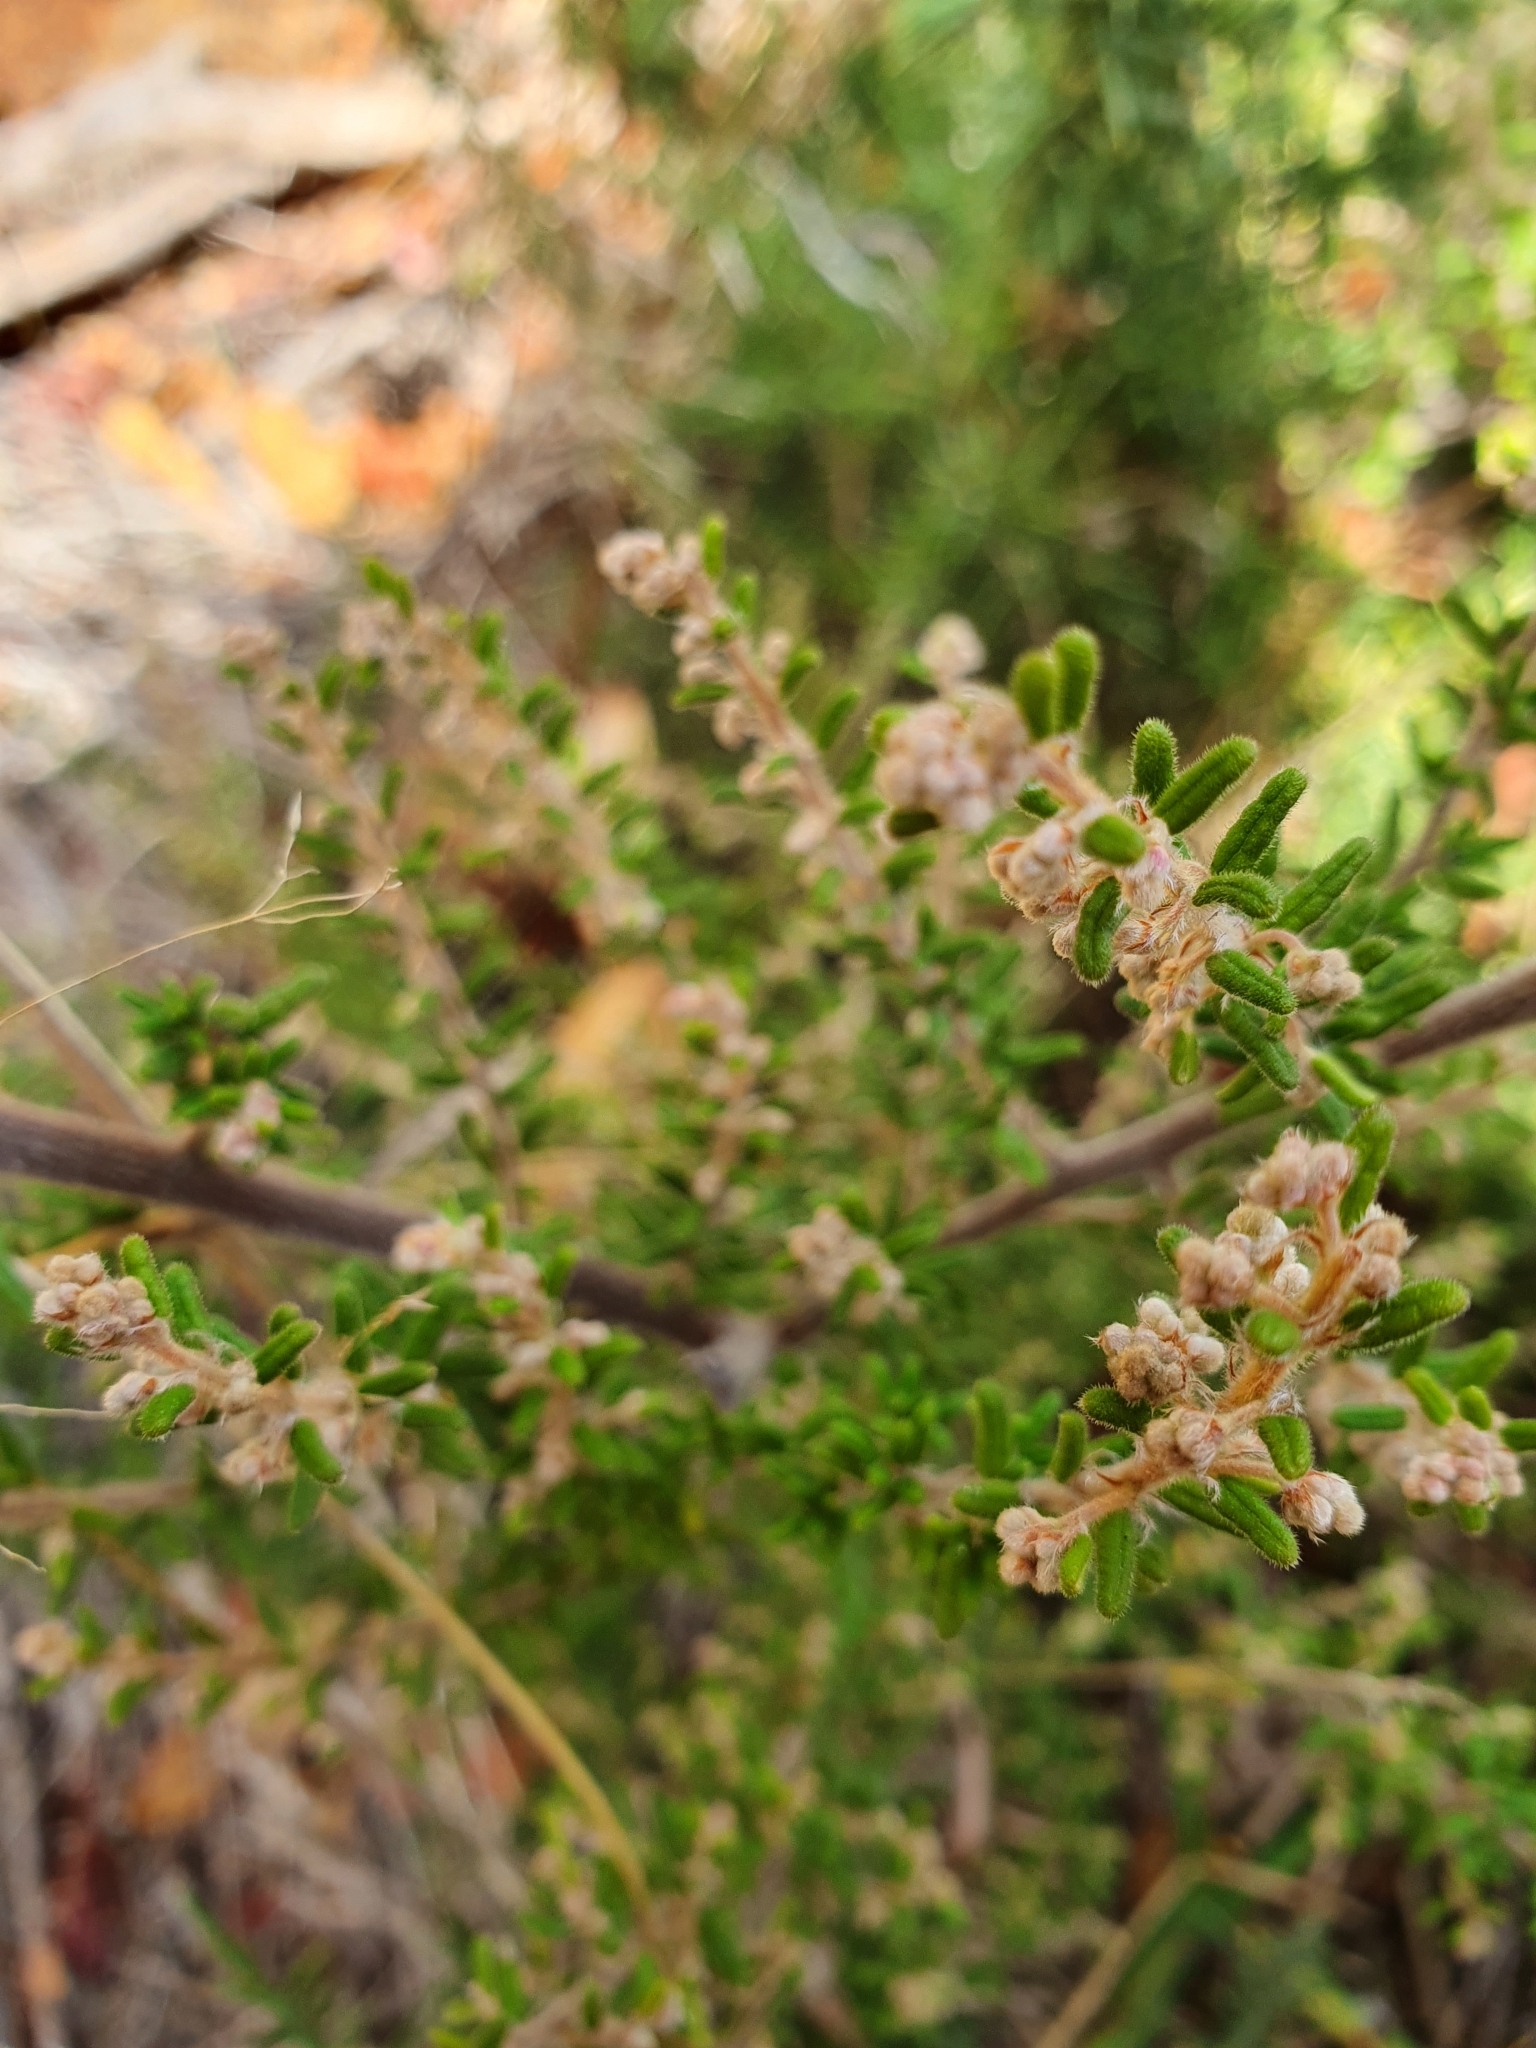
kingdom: Plantae
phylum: Tracheophyta
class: Magnoliopsida
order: Rosales
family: Rhamnaceae
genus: Pomaderris
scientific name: Pomaderris amoena
